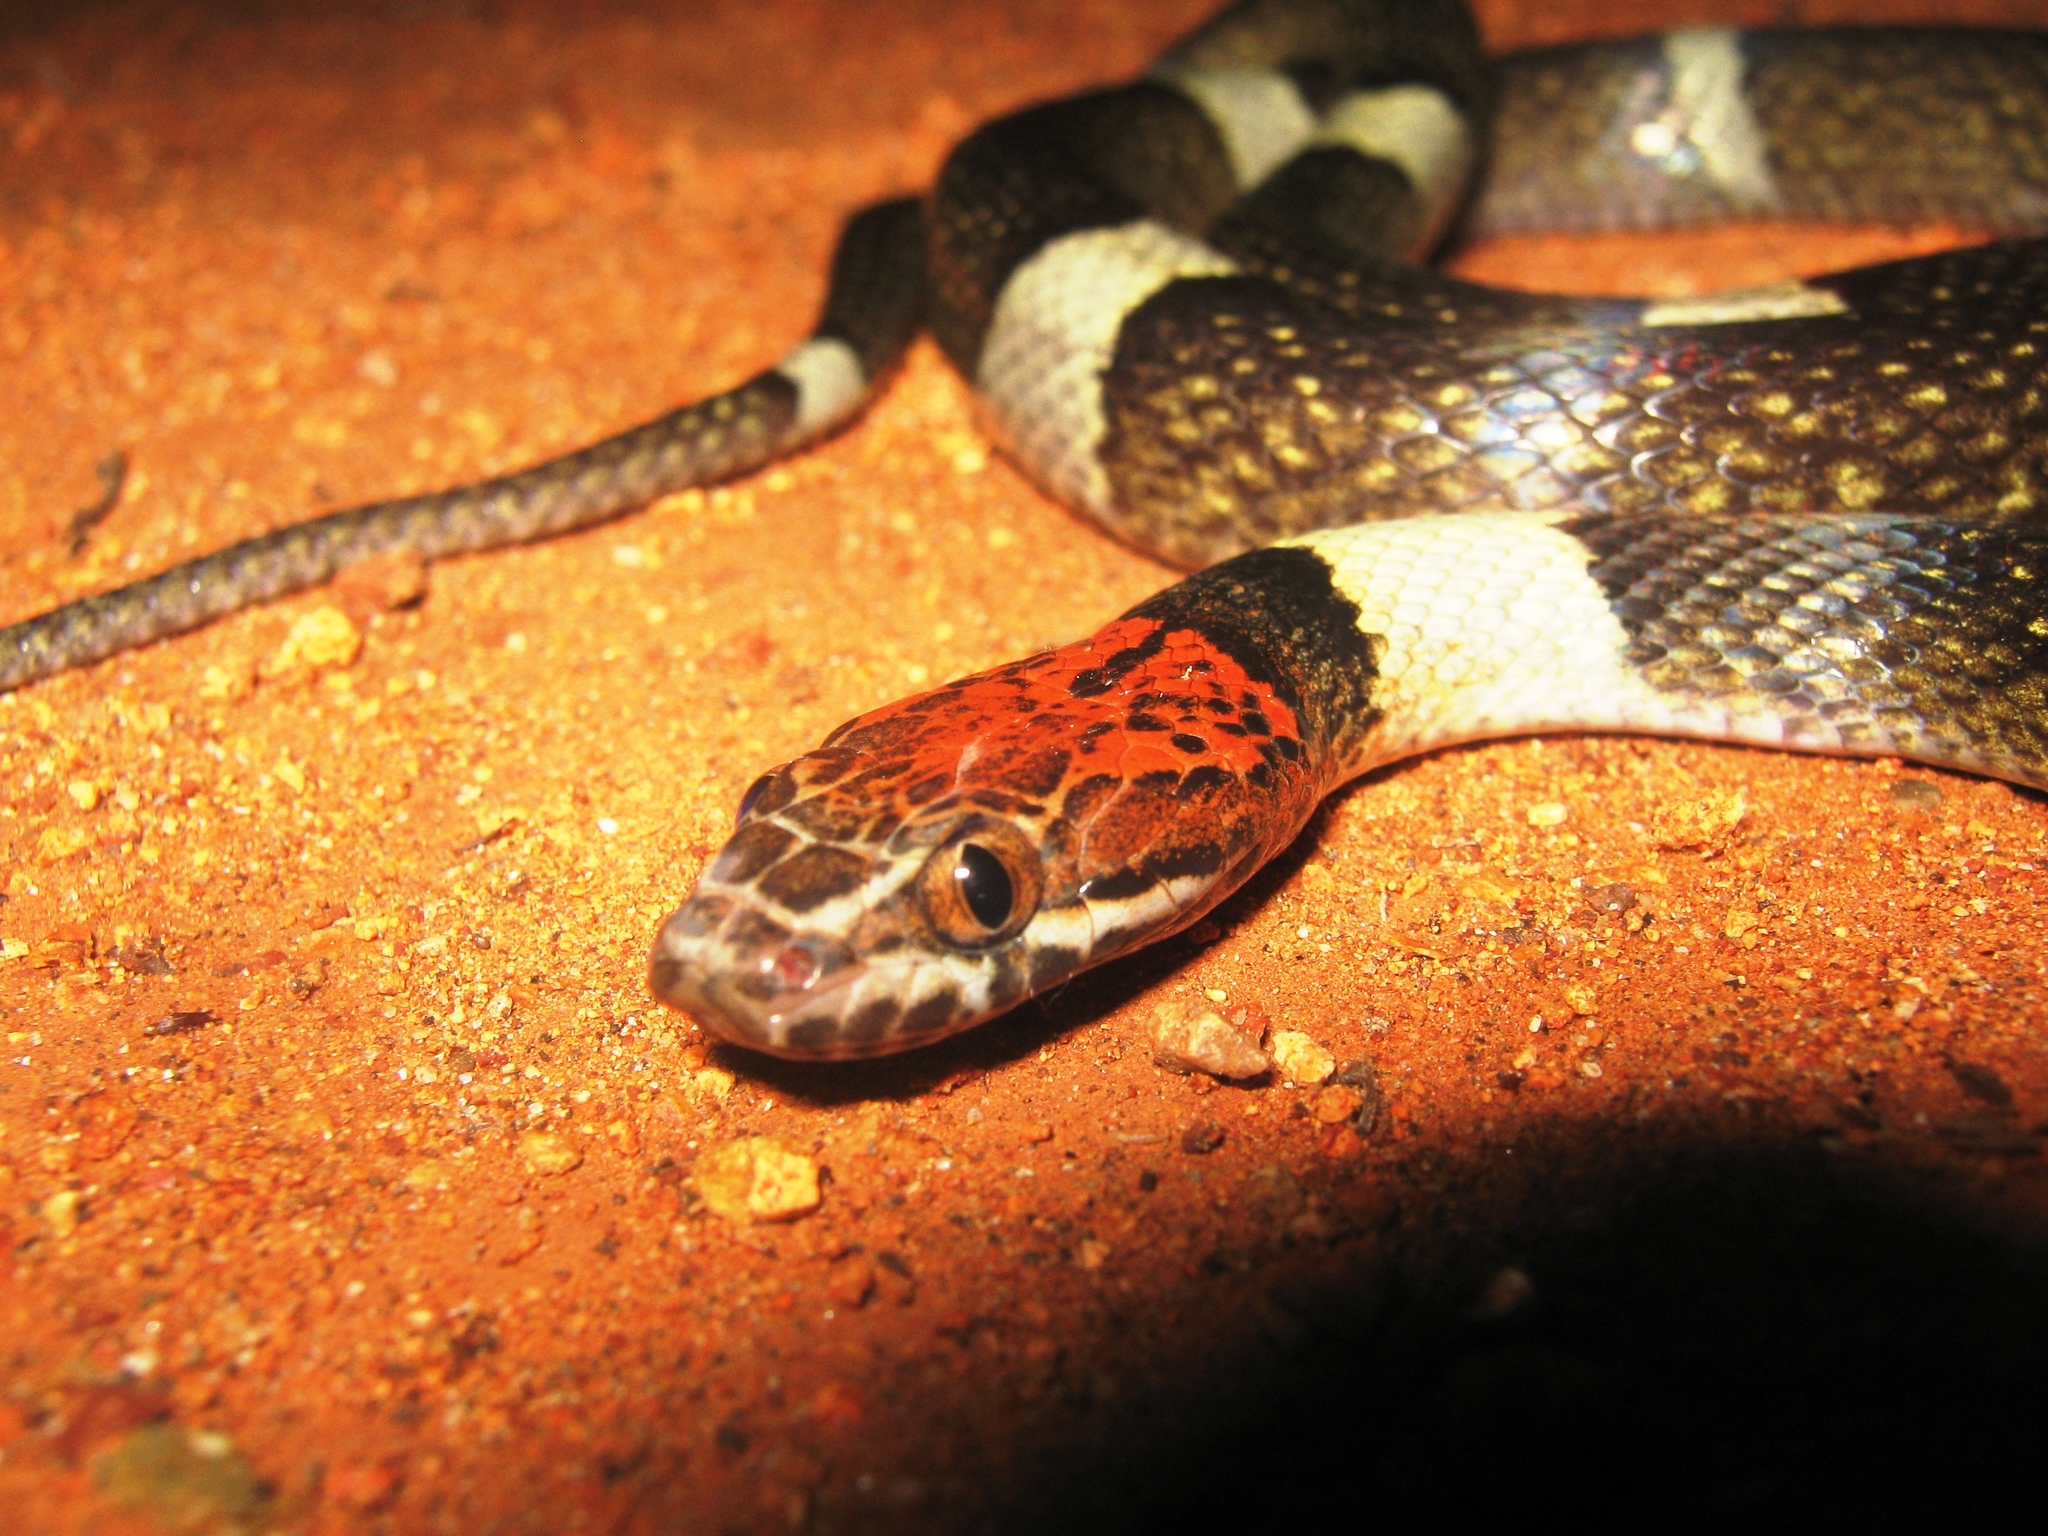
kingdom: Animalia
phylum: Chordata
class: Squamata
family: Colubridae
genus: Pseudoleptodeira
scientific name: Pseudoleptodeira latifasciata
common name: False cat-eyed snake
